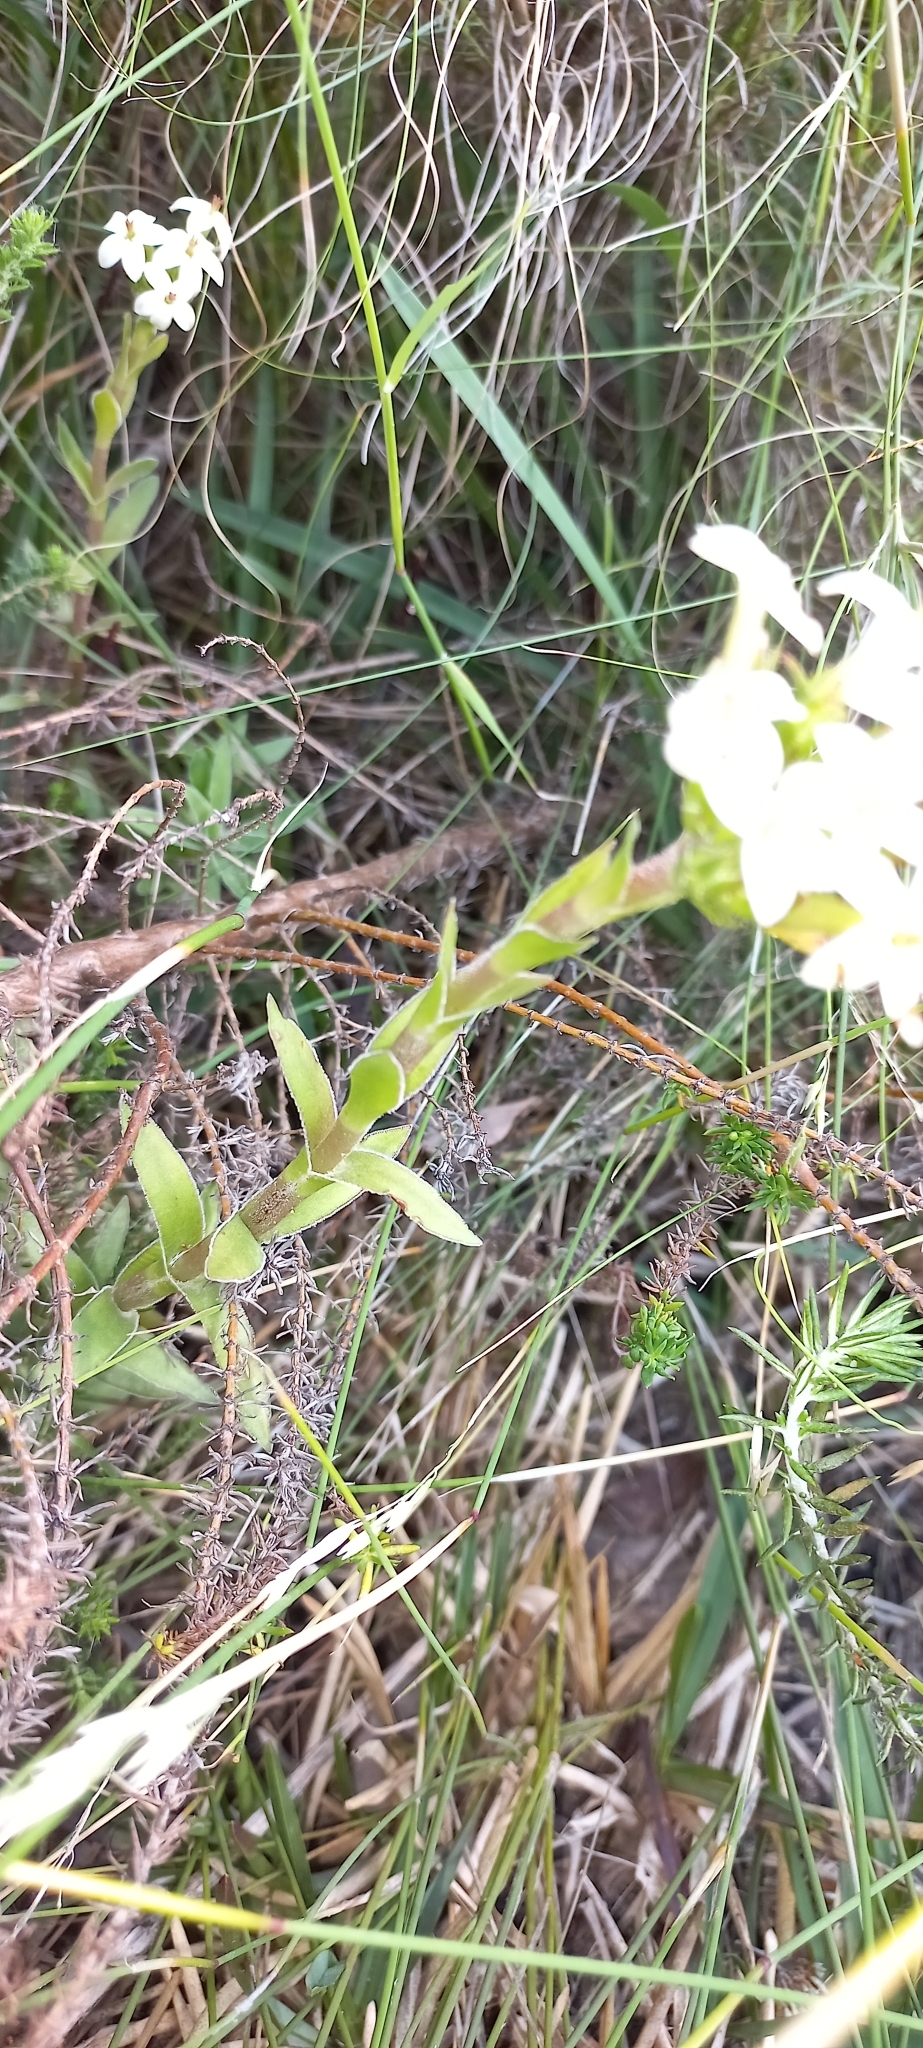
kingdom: Plantae
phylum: Tracheophyta
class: Magnoliopsida
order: Saxifragales
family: Crassulaceae
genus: Crassula
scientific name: Crassula fascicularis
